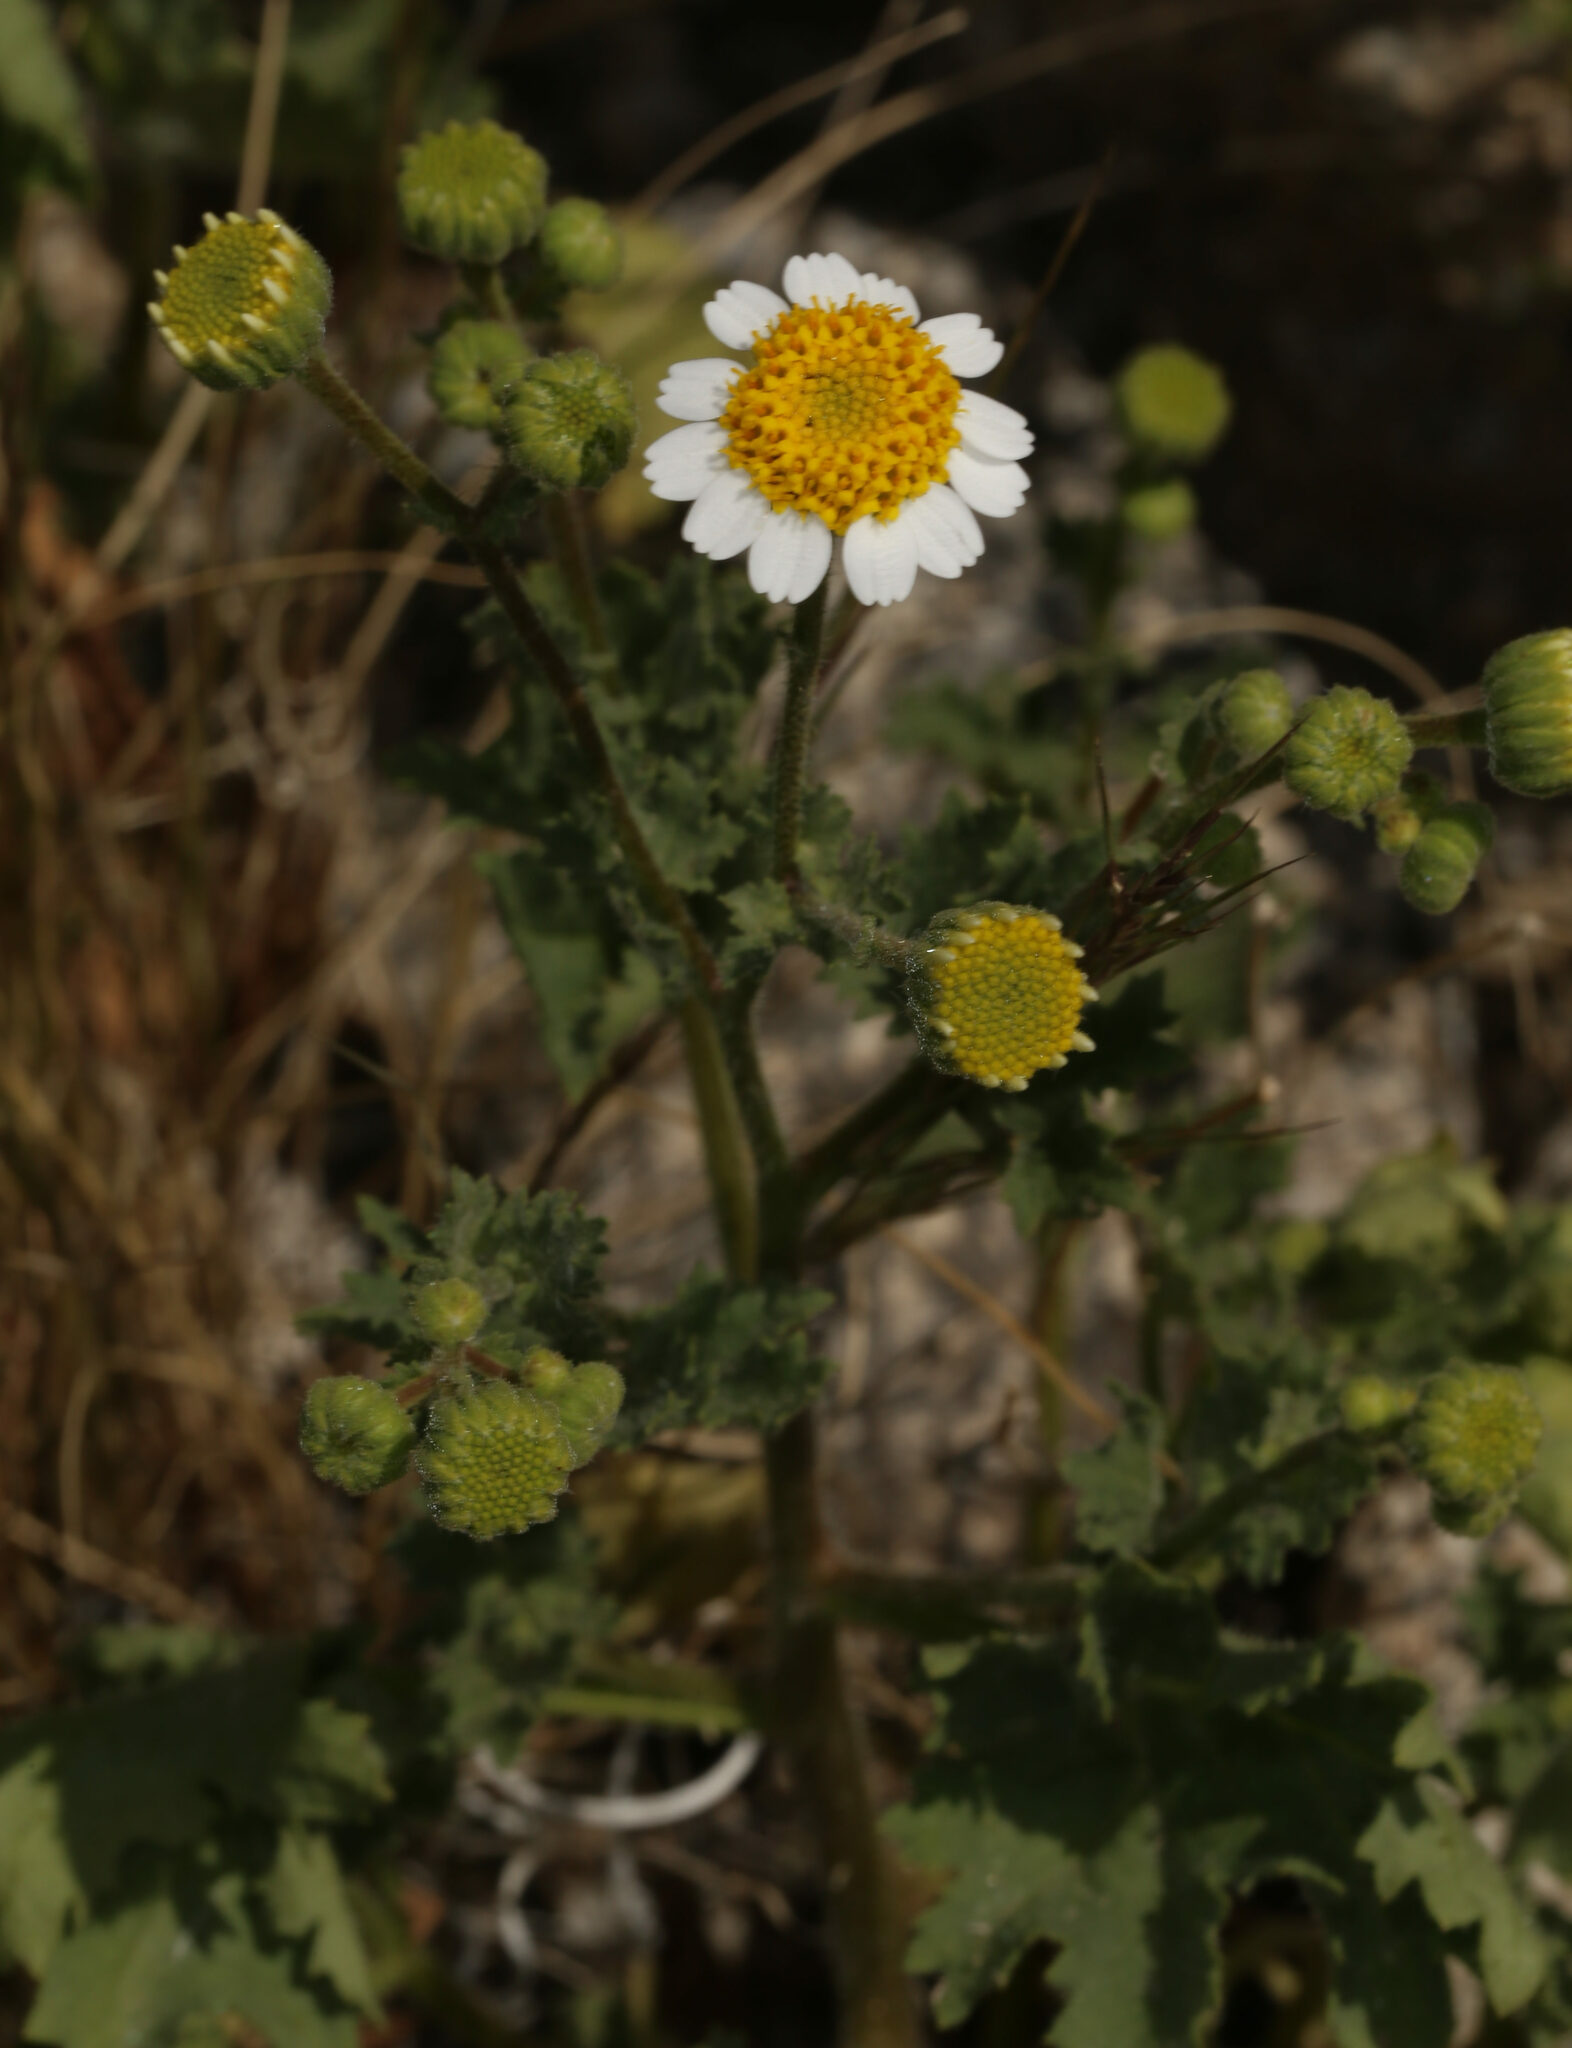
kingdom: Plantae
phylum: Tracheophyta
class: Magnoliopsida
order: Asterales
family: Asteraceae
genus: Laphamia
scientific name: Laphamia emoryi
